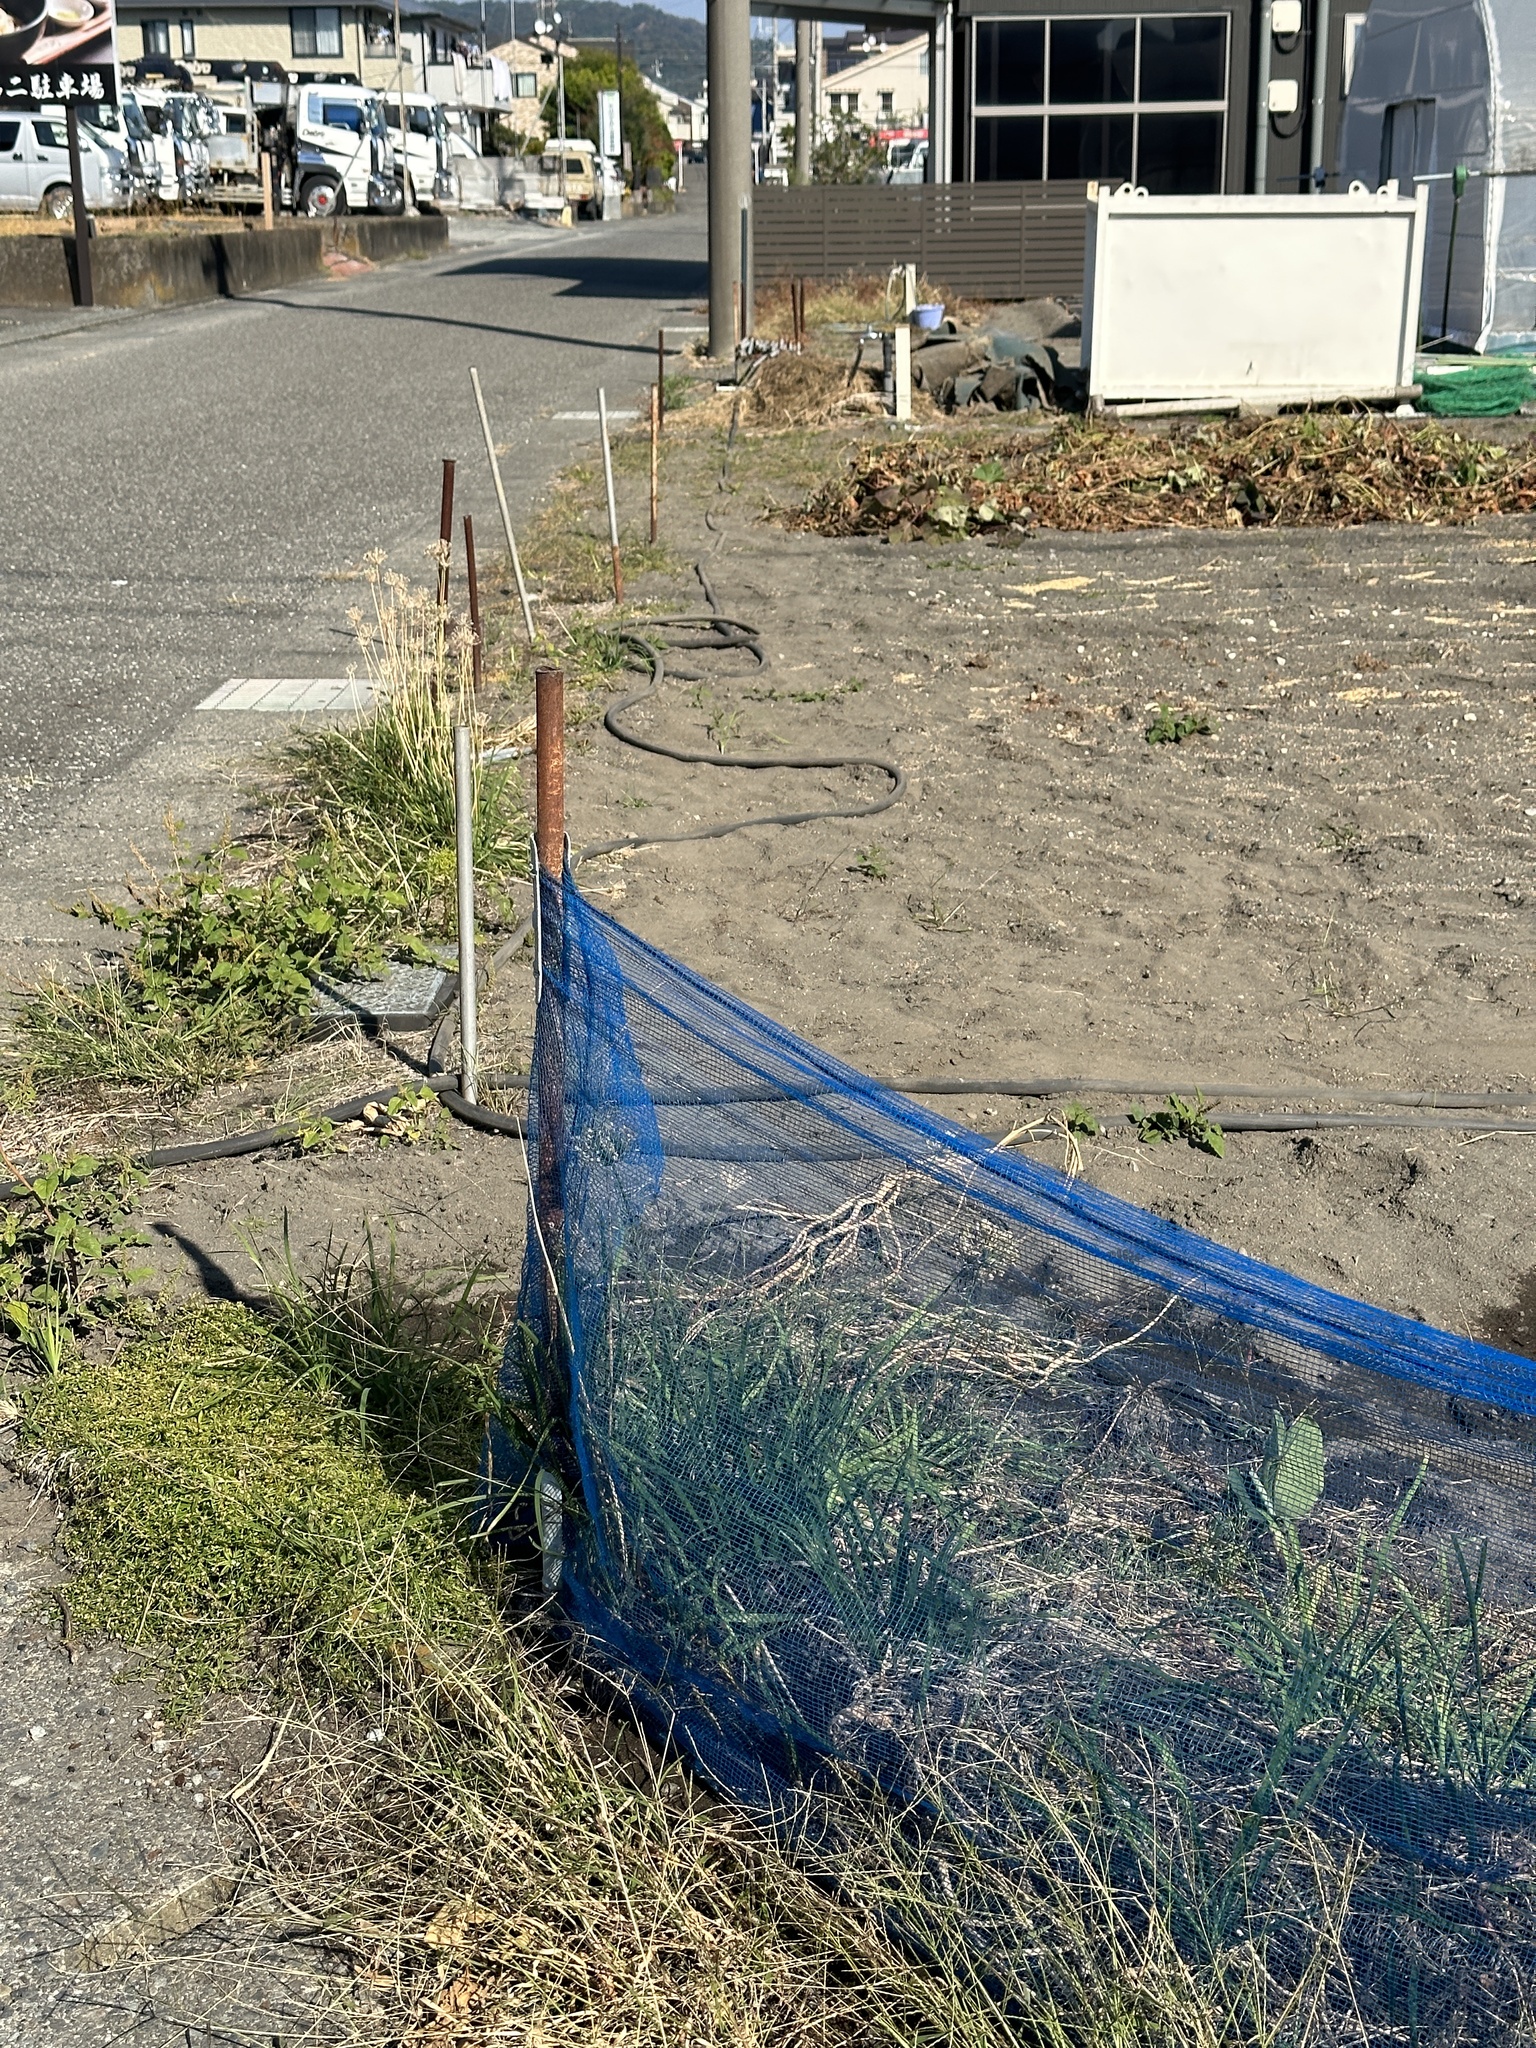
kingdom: Animalia
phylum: Arthropoda
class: Insecta
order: Orthoptera
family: Gryllidae
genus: Teleogryllus
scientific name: Teleogryllus emma
